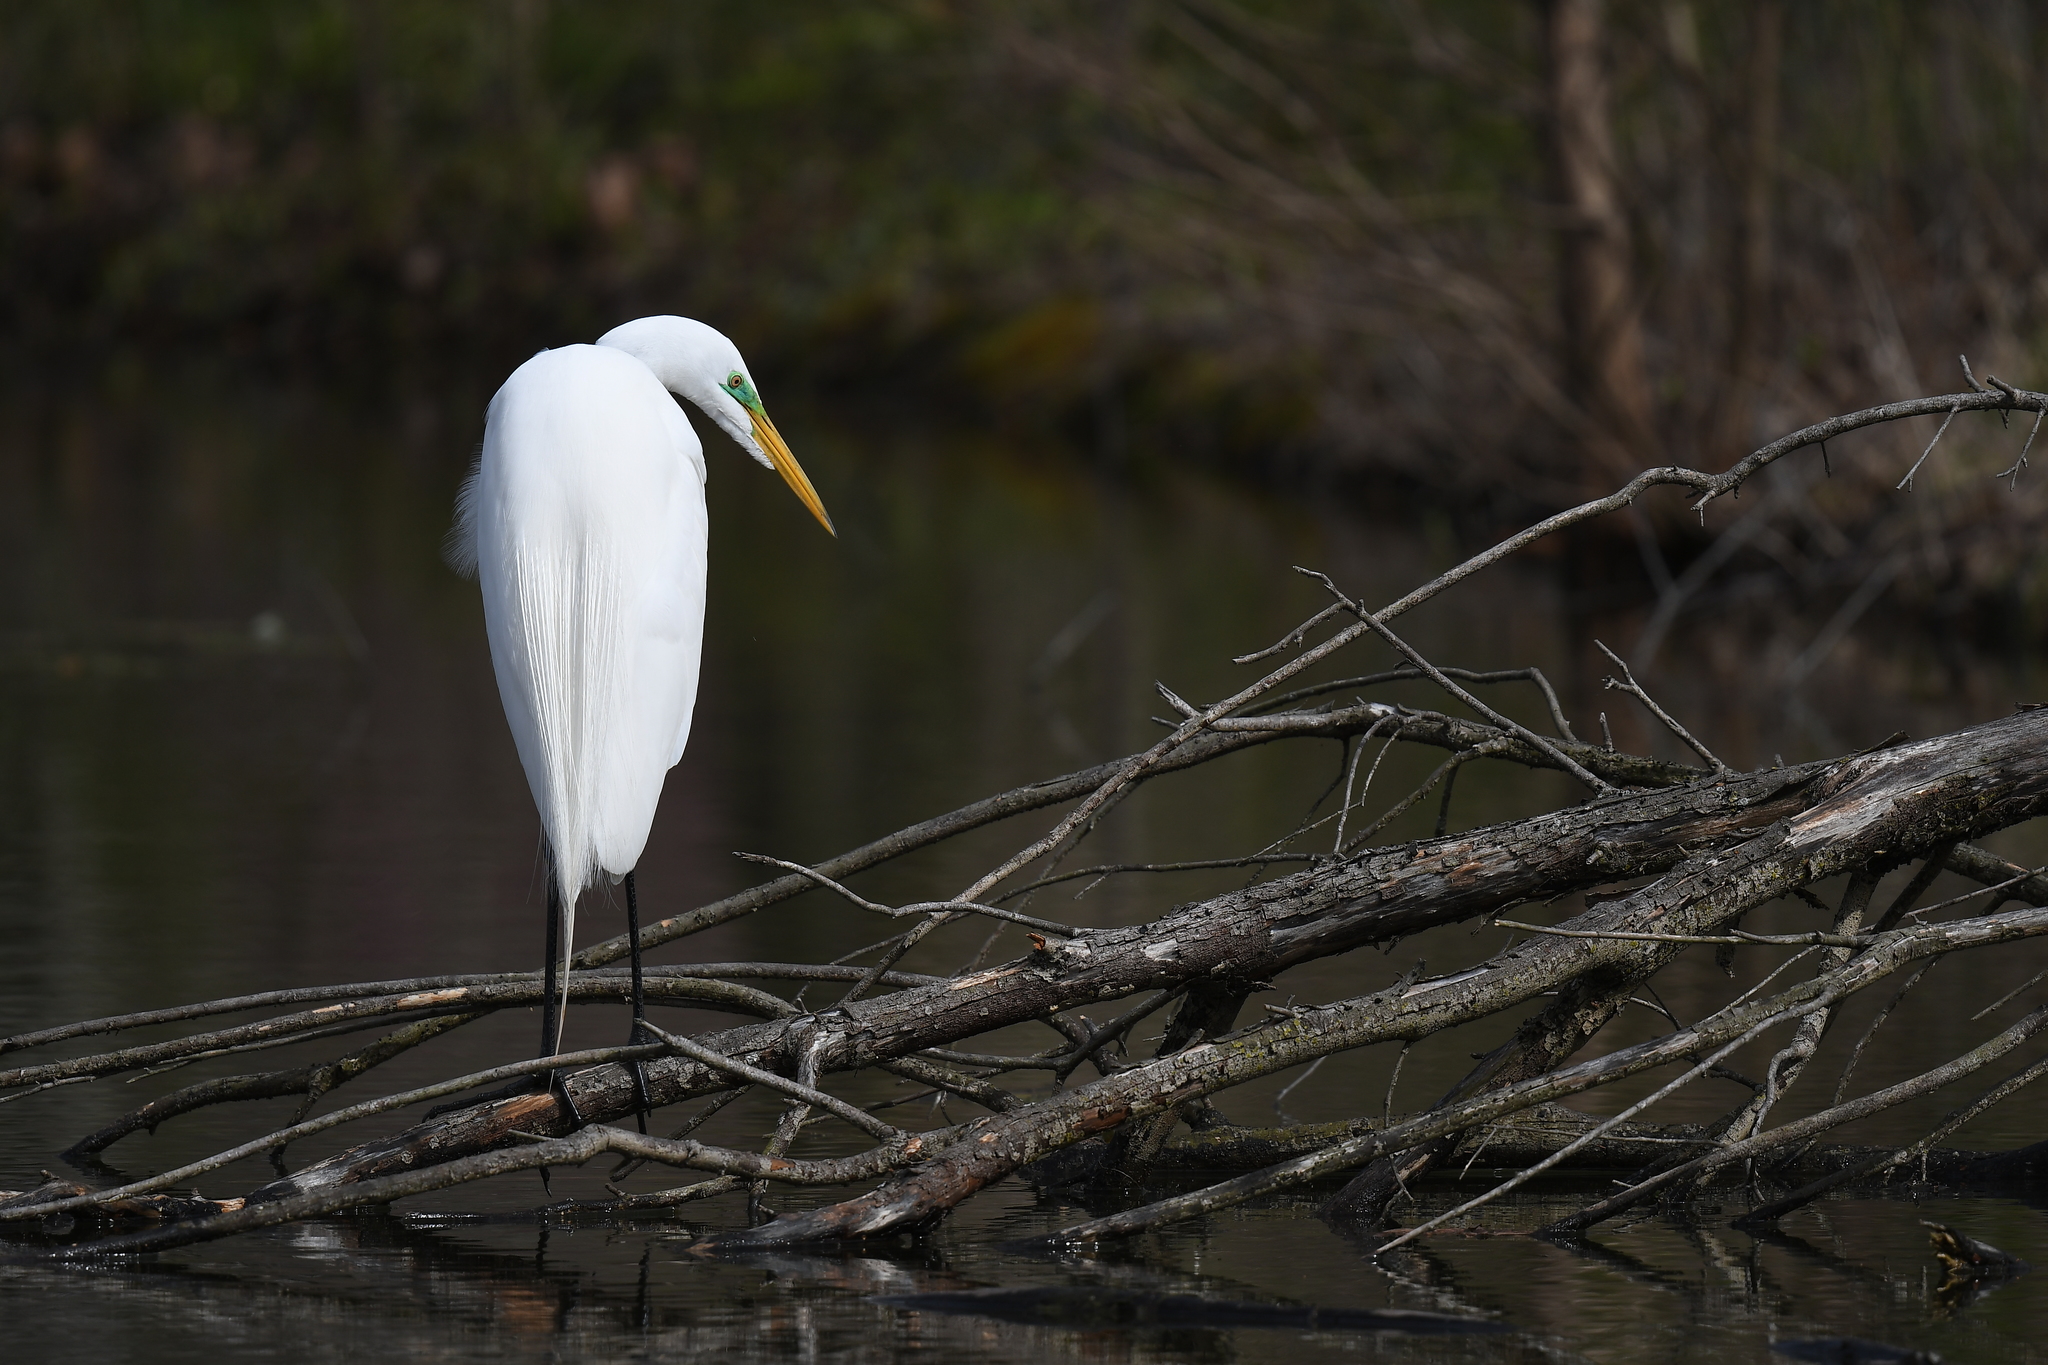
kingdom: Animalia
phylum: Chordata
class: Aves
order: Pelecaniformes
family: Ardeidae
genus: Ardea
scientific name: Ardea alba
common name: Great egret
